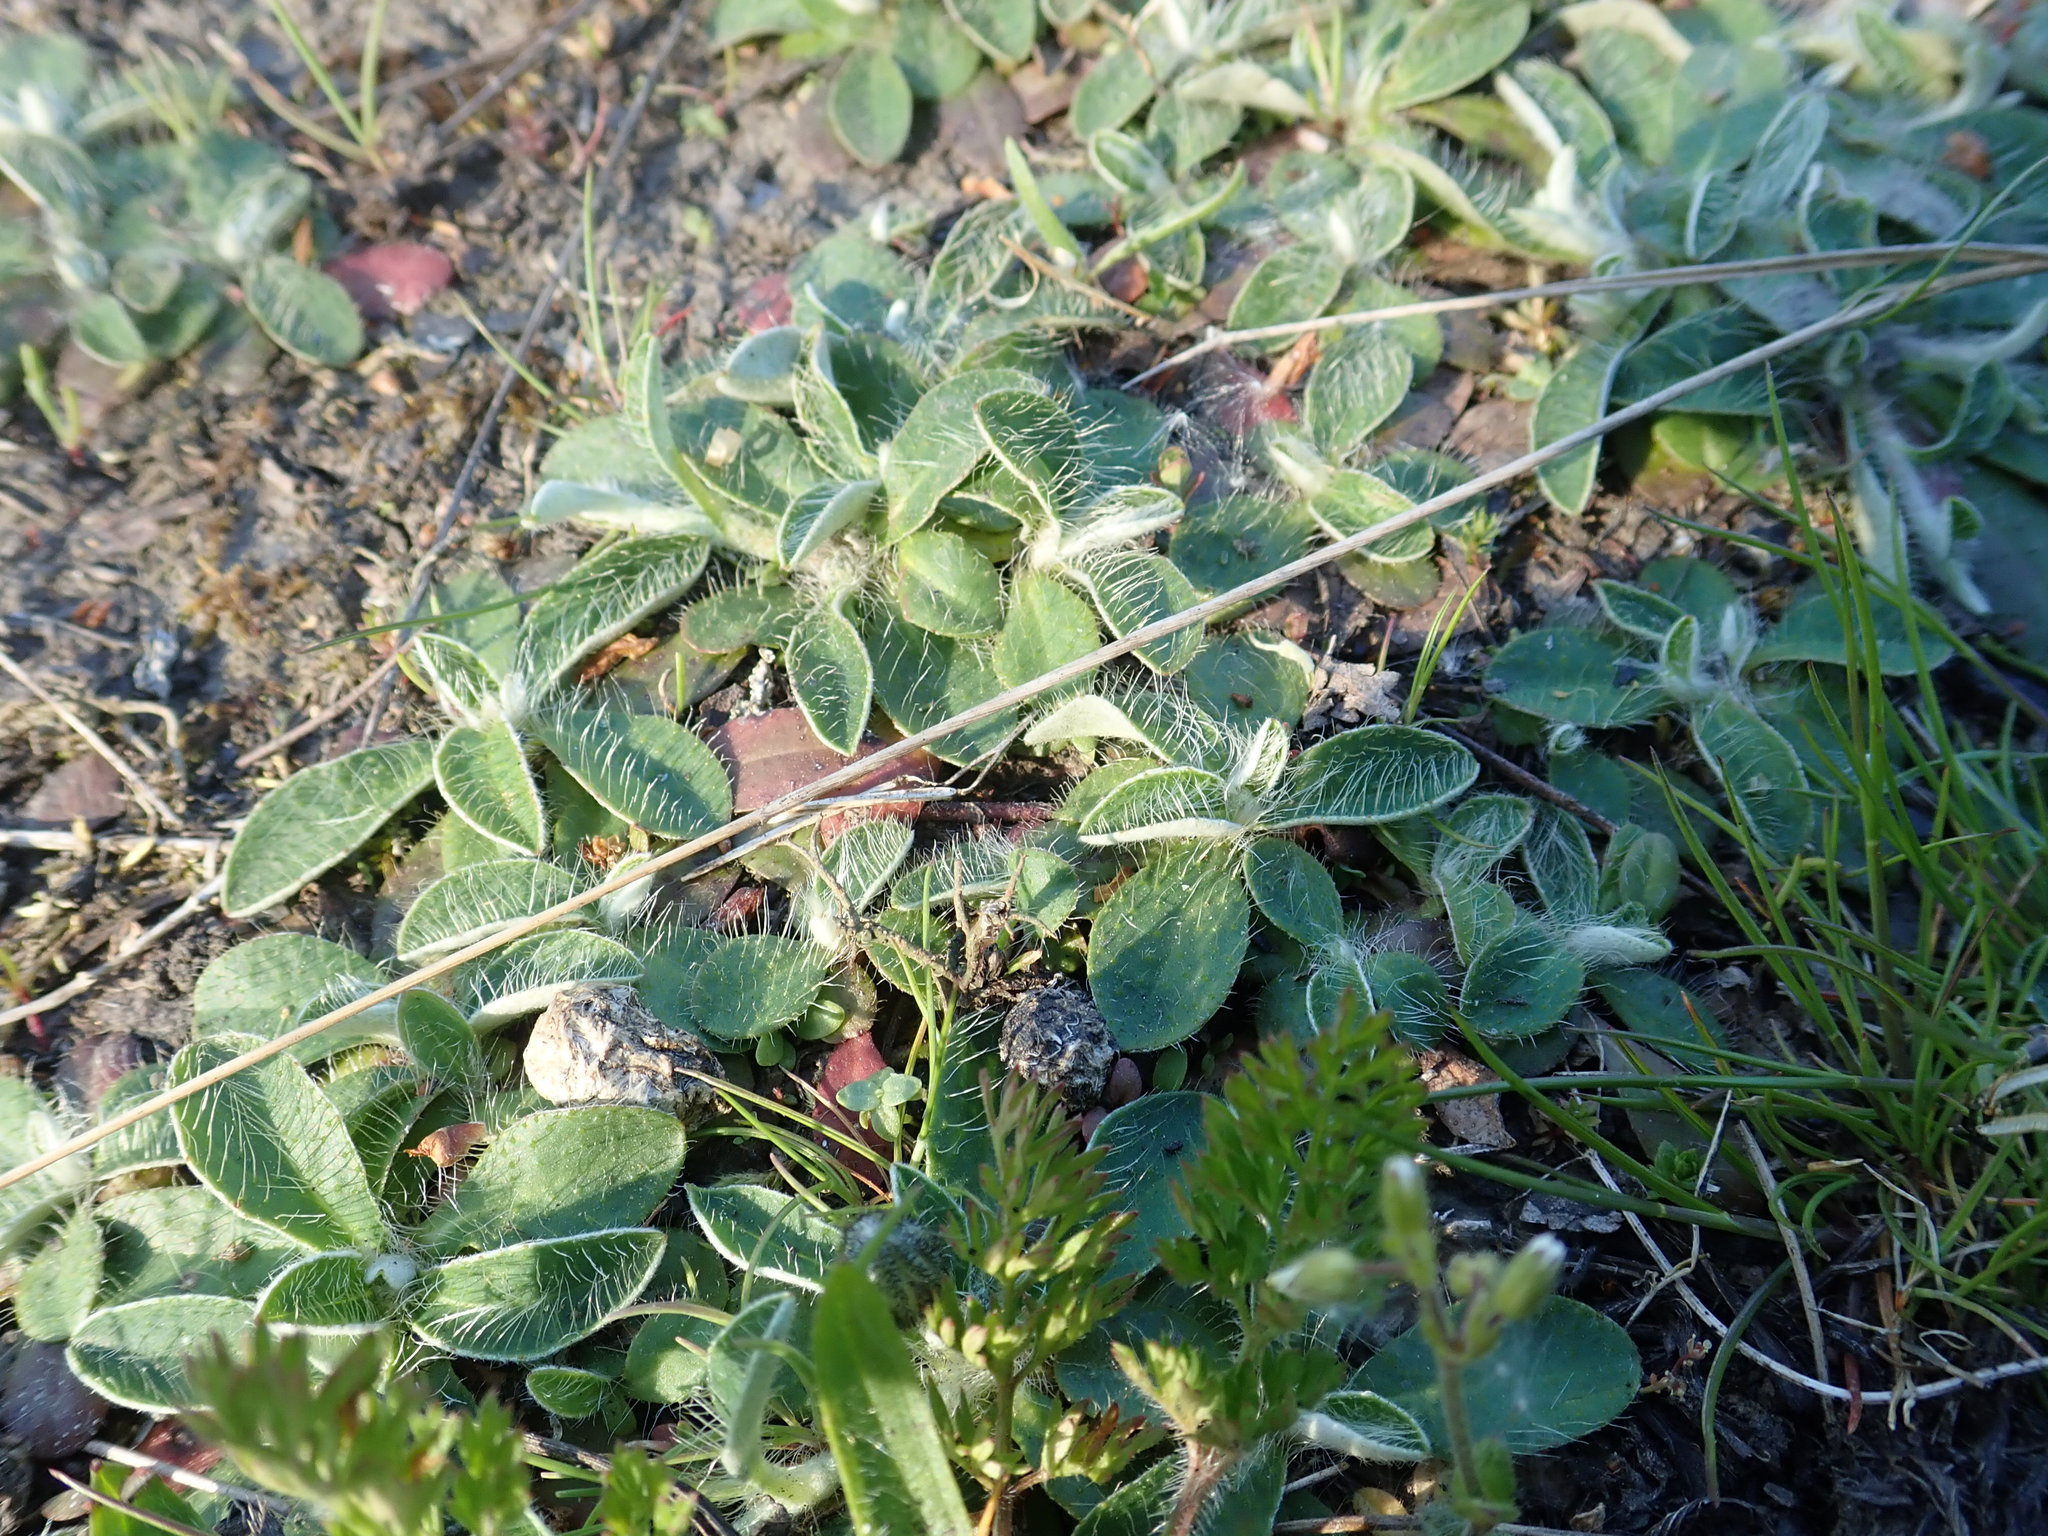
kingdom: Plantae
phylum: Tracheophyta
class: Magnoliopsida
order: Asterales
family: Asteraceae
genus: Pilosella
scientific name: Pilosella officinarum
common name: Mouse-ear hawkweed
